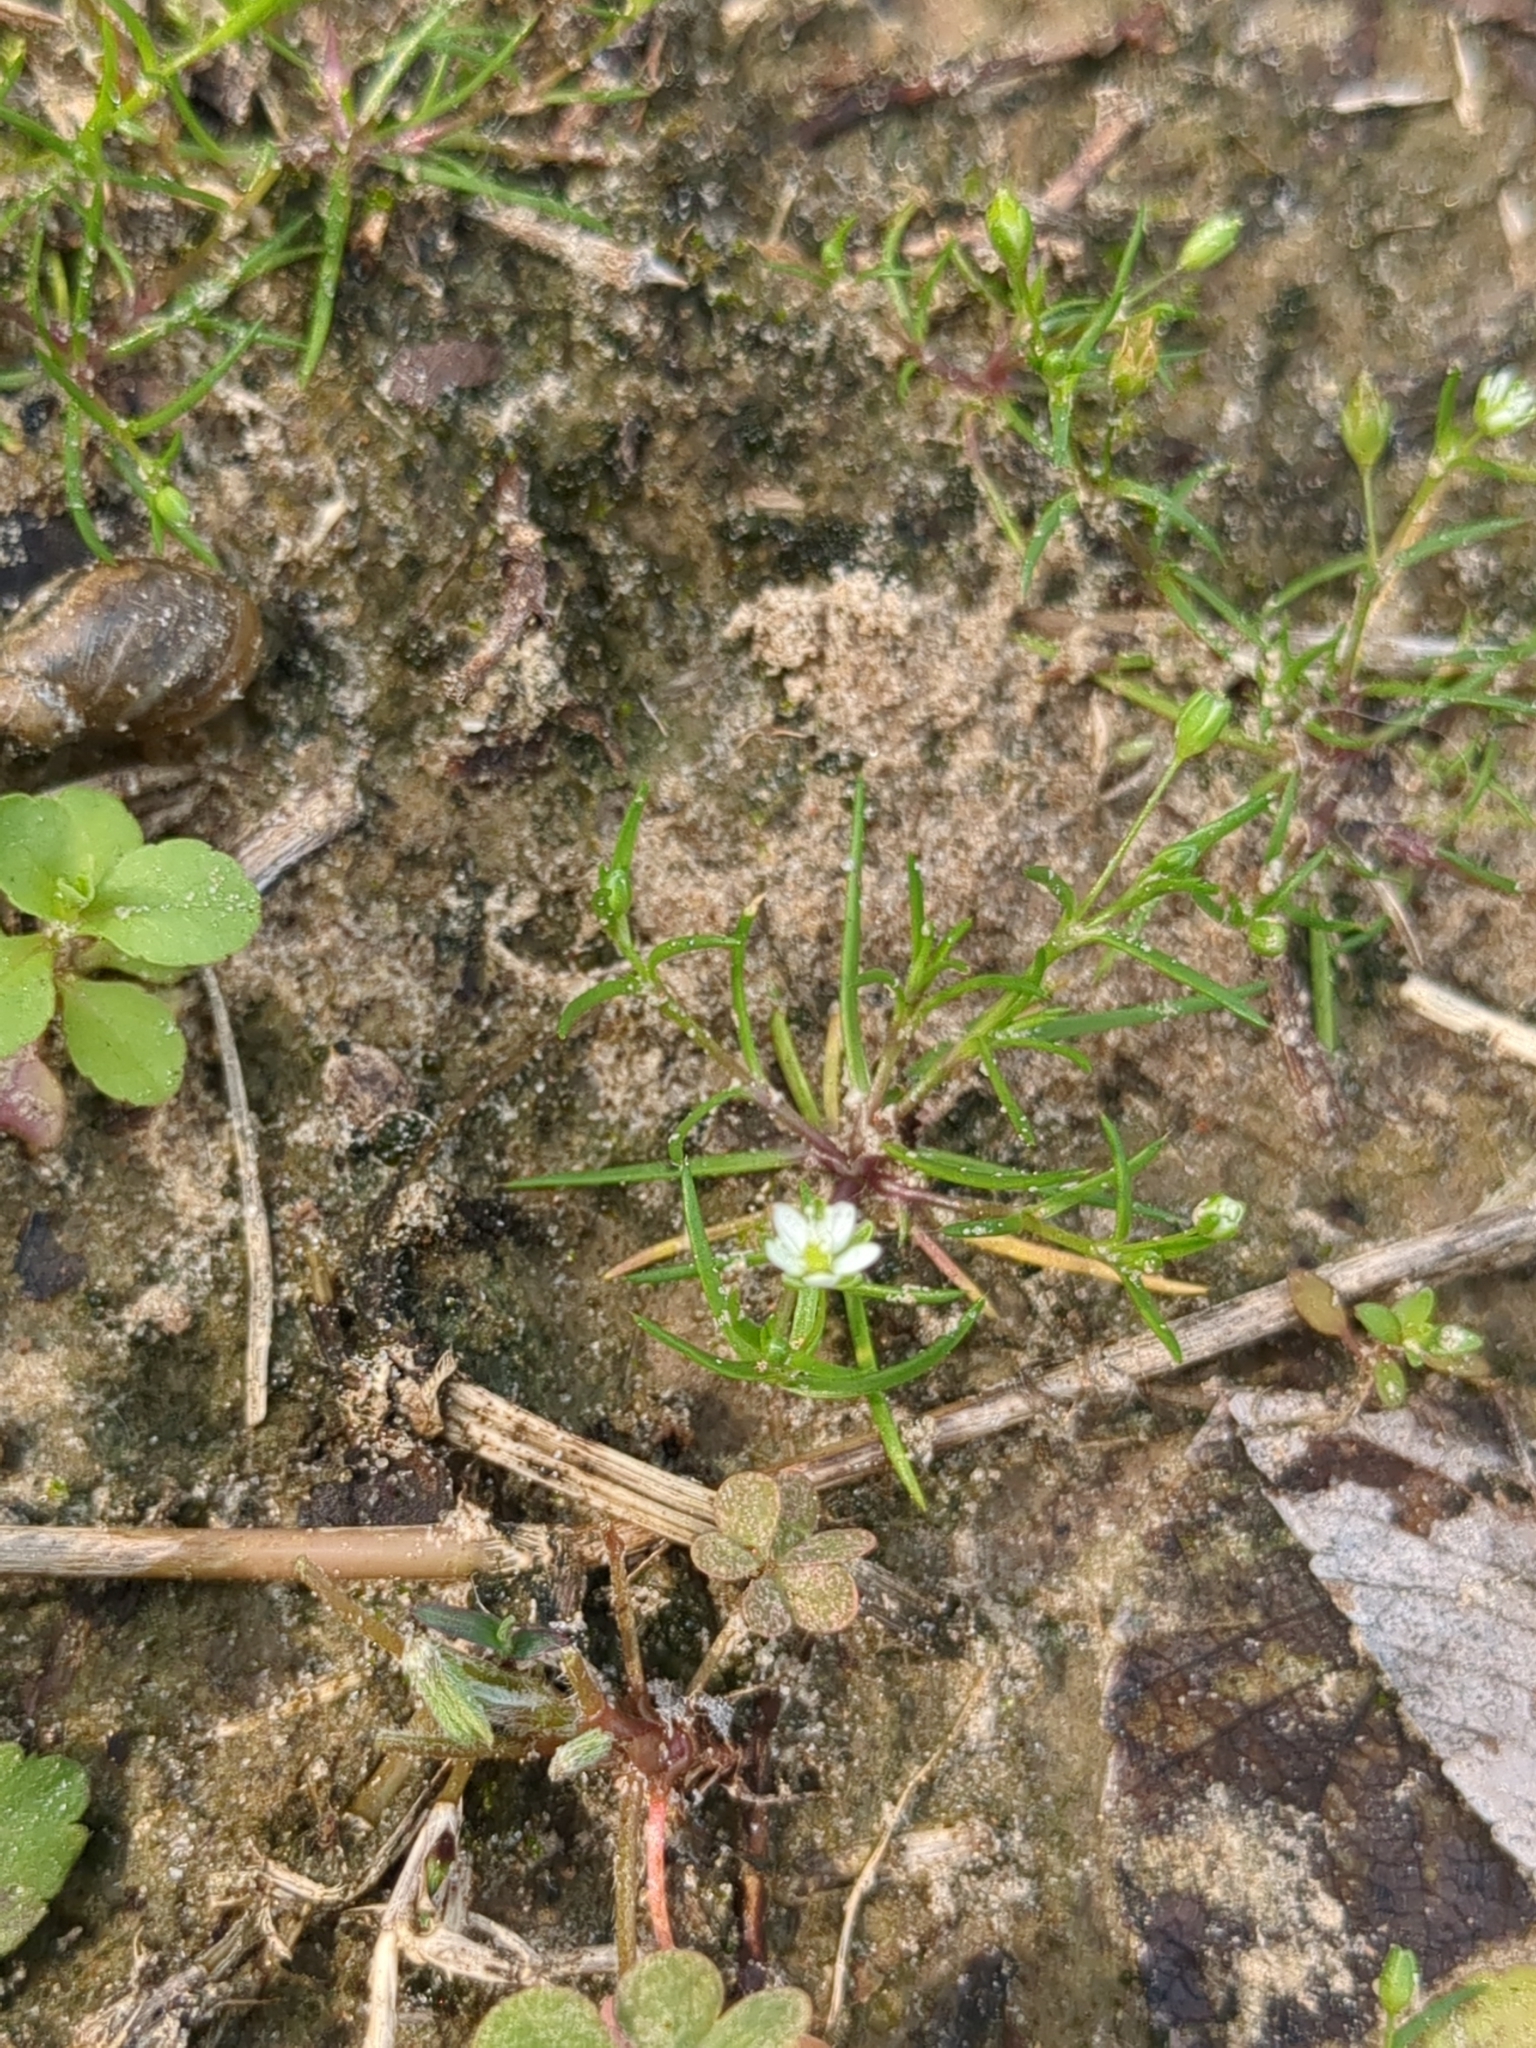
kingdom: Plantae
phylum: Tracheophyta
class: Magnoliopsida
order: Caryophyllales
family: Caryophyllaceae
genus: Sagina
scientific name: Sagina decumbens
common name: Decumbent pearlwort
